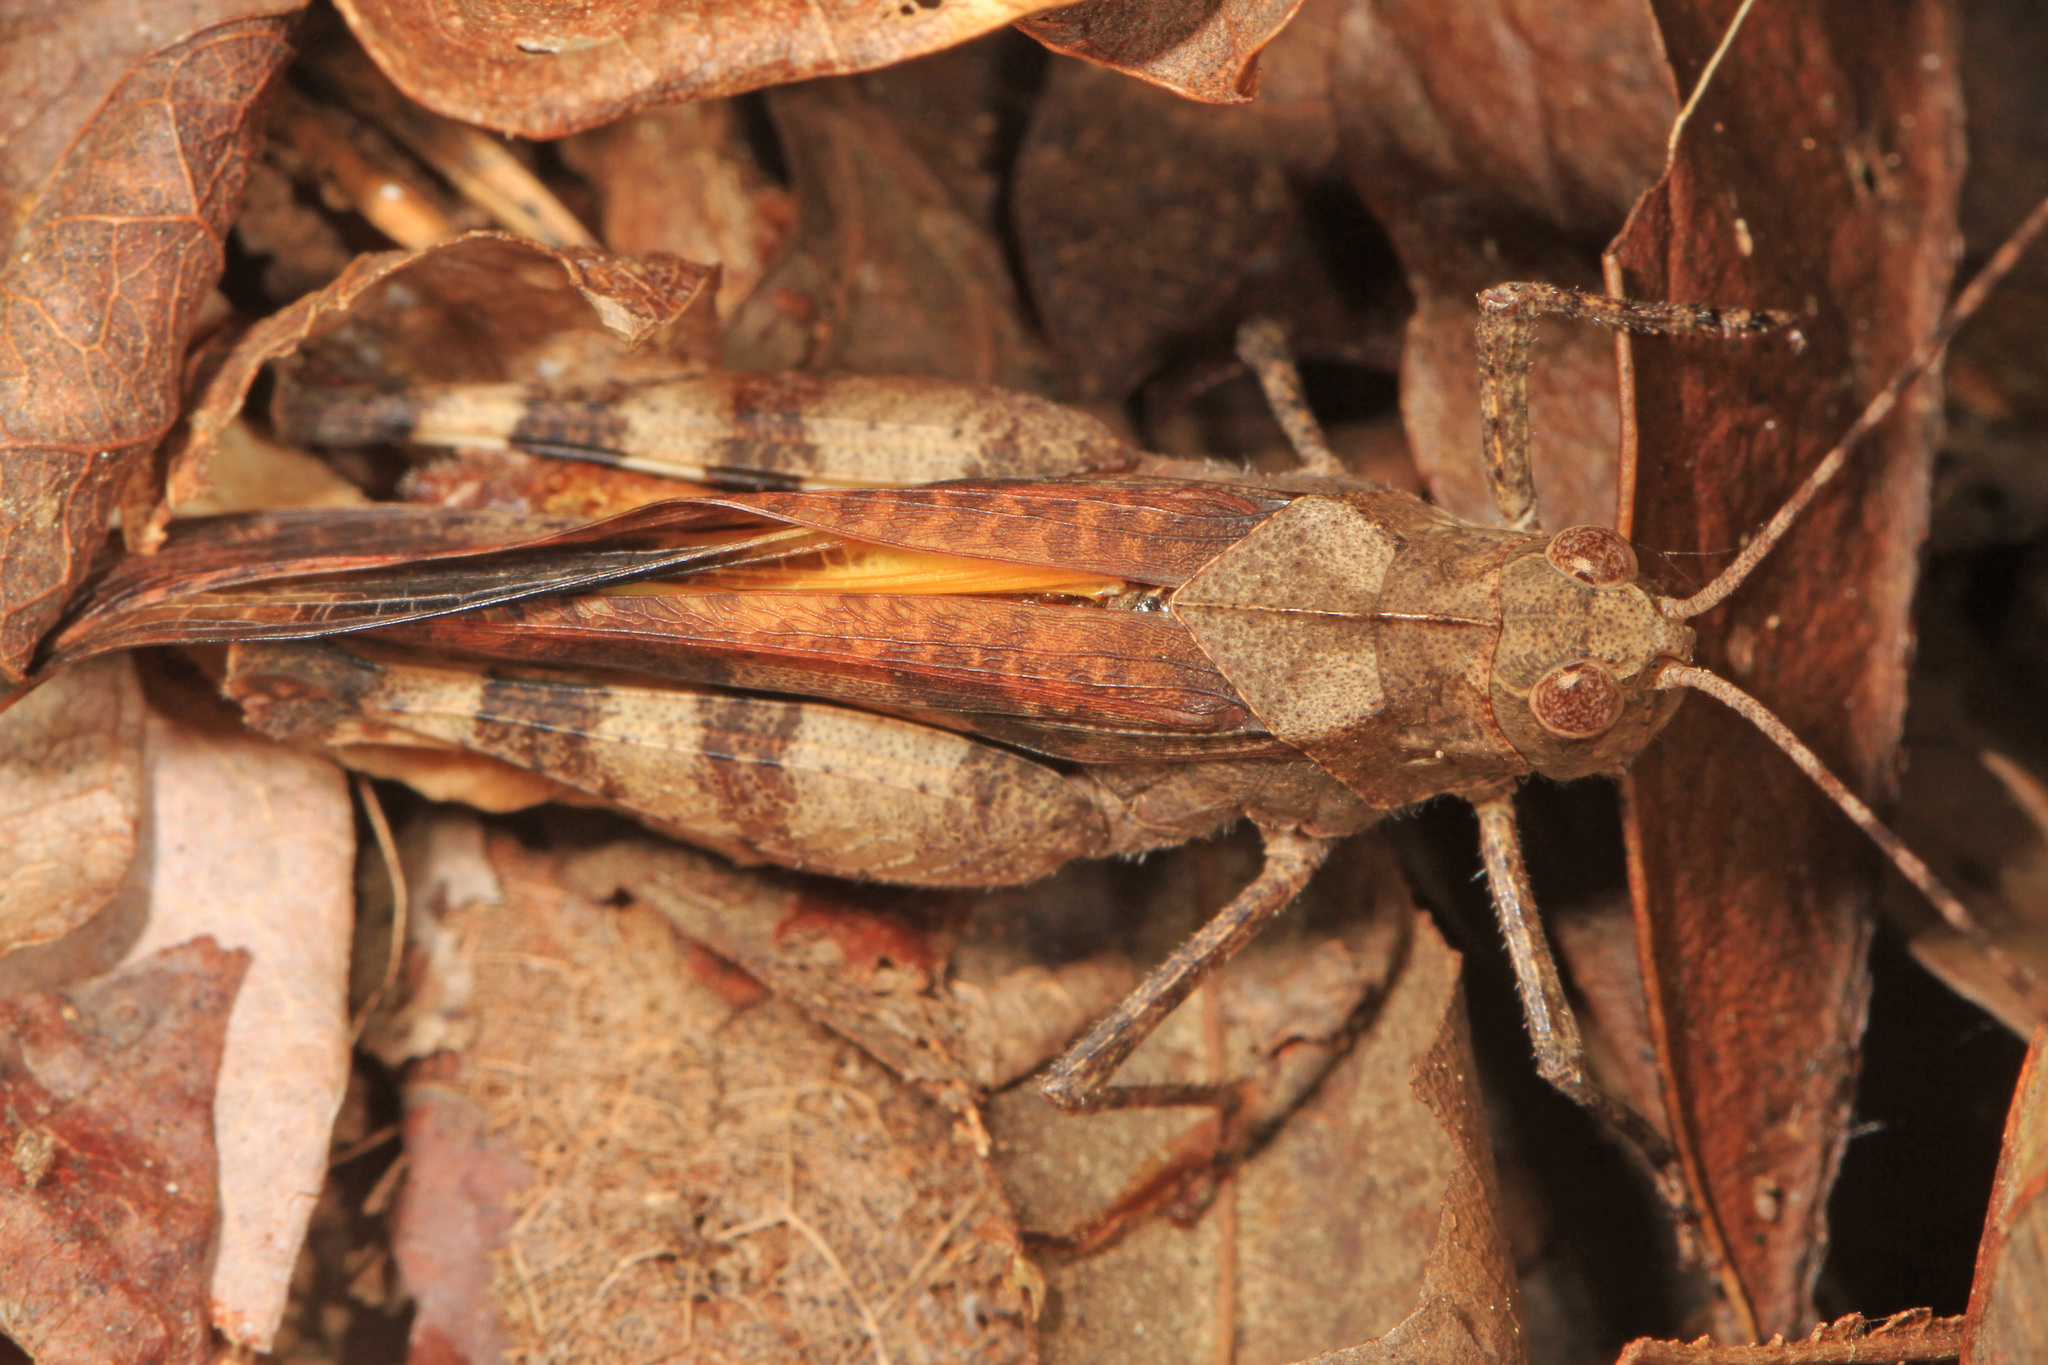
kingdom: Animalia
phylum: Arthropoda
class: Insecta
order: Orthoptera
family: Acrididae
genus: Spharagemon
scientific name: Spharagemon bolli
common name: Boll's grasshopper
